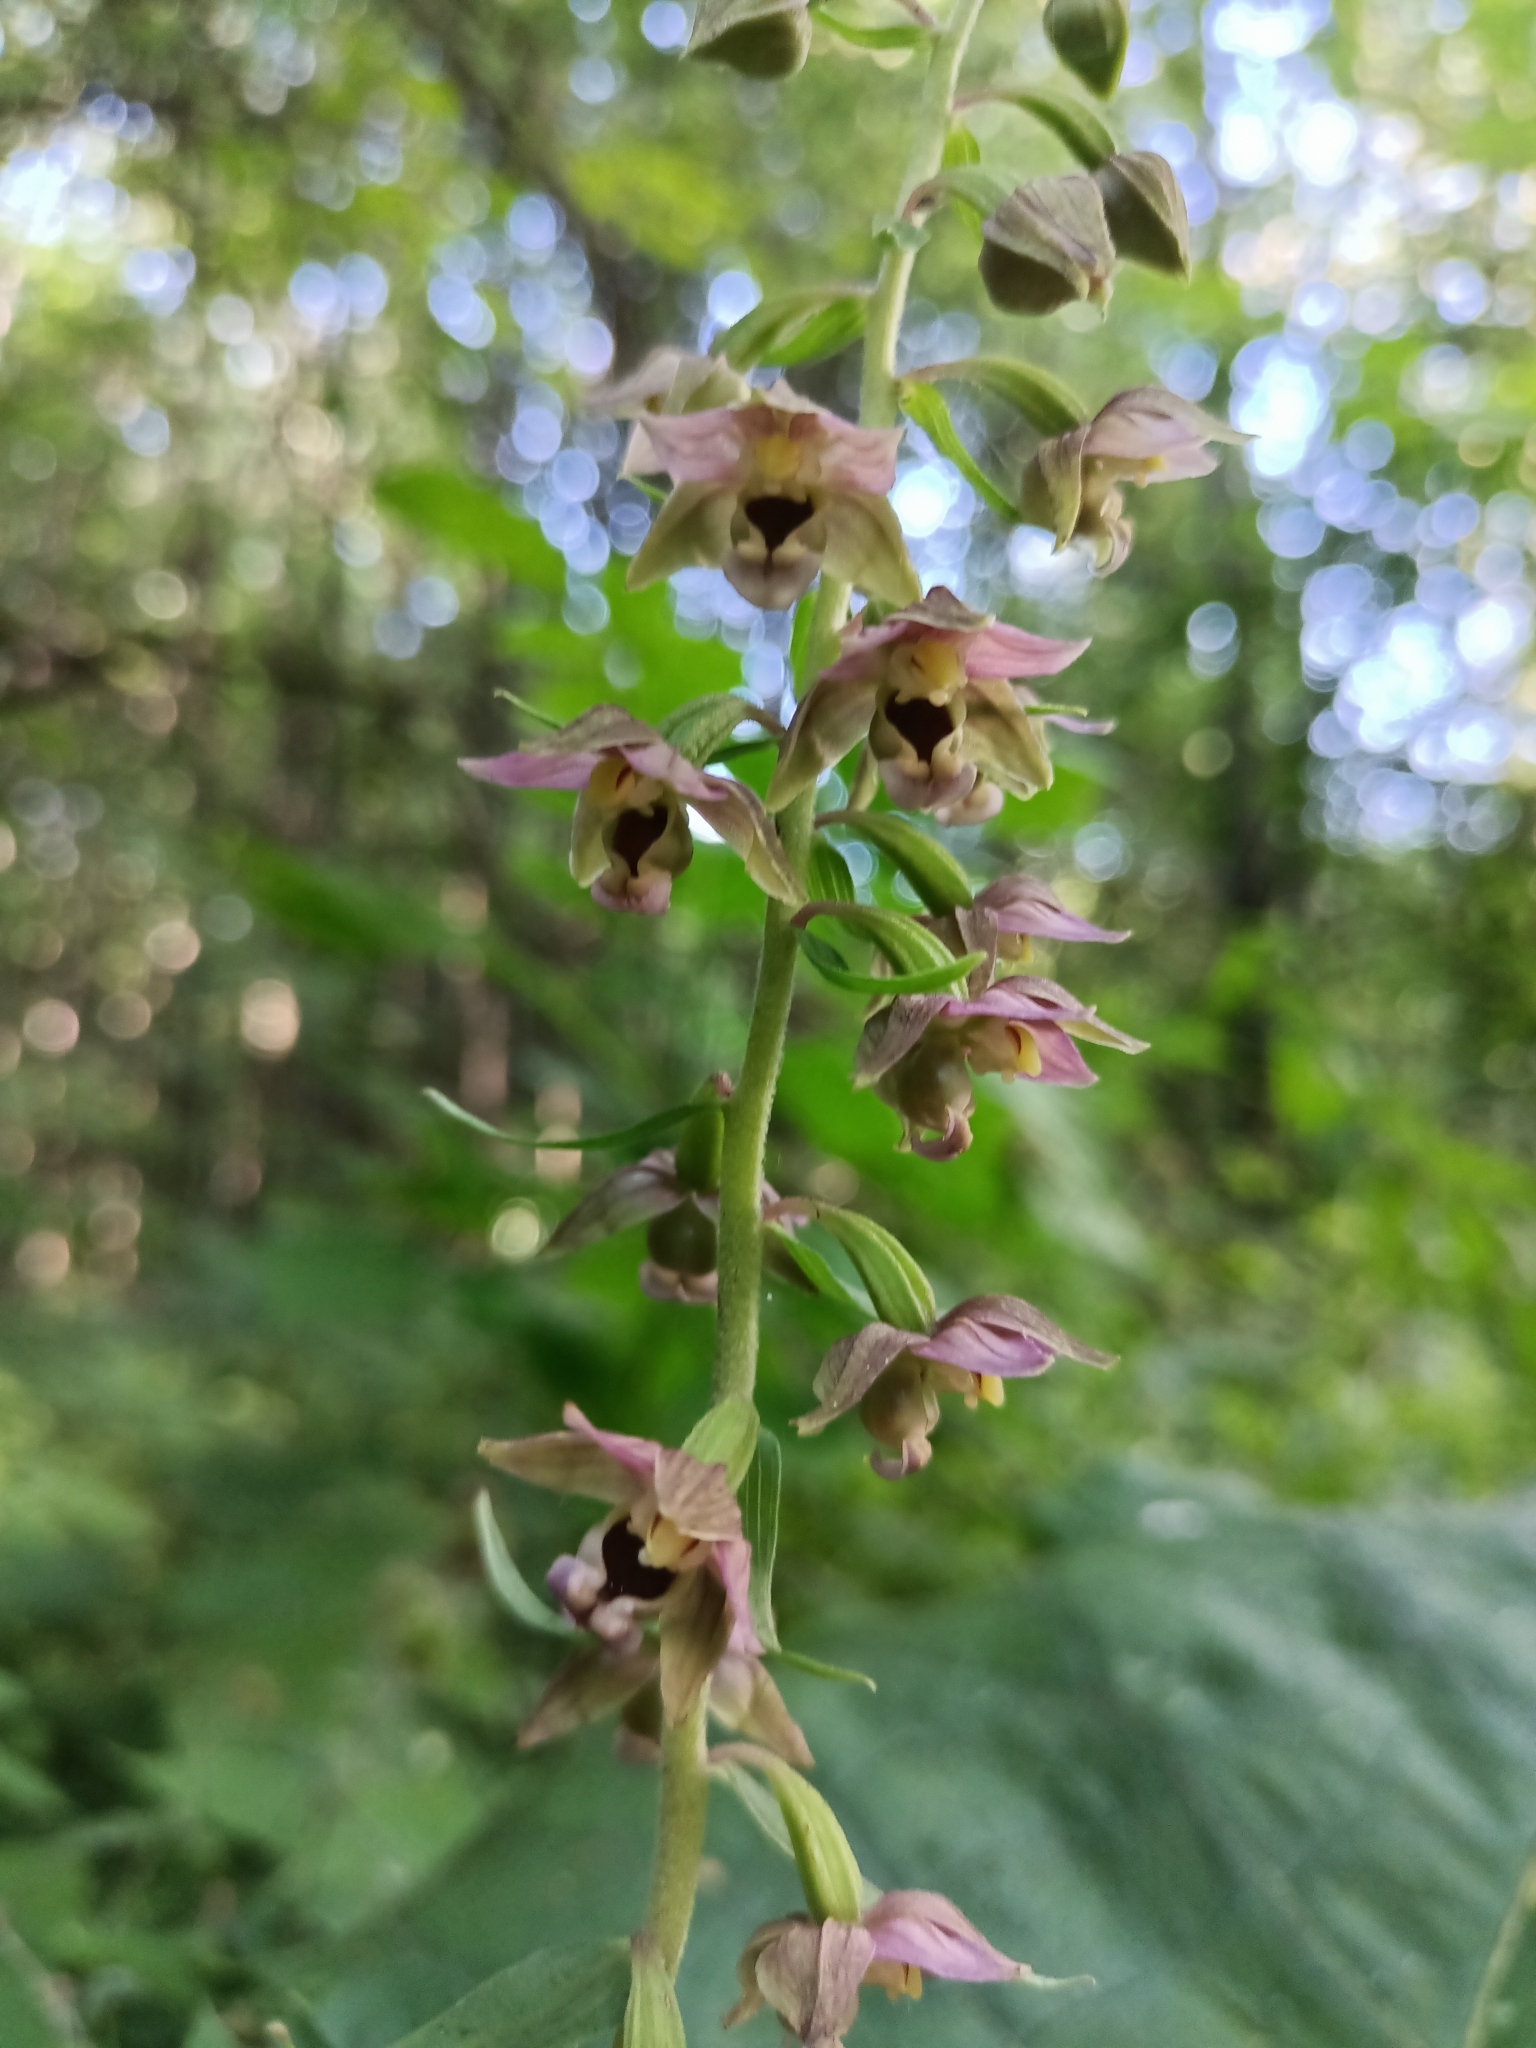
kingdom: Plantae
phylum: Tracheophyta
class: Liliopsida
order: Asparagales
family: Orchidaceae
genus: Epipactis
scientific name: Epipactis helleborine
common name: Broad-leaved helleborine
